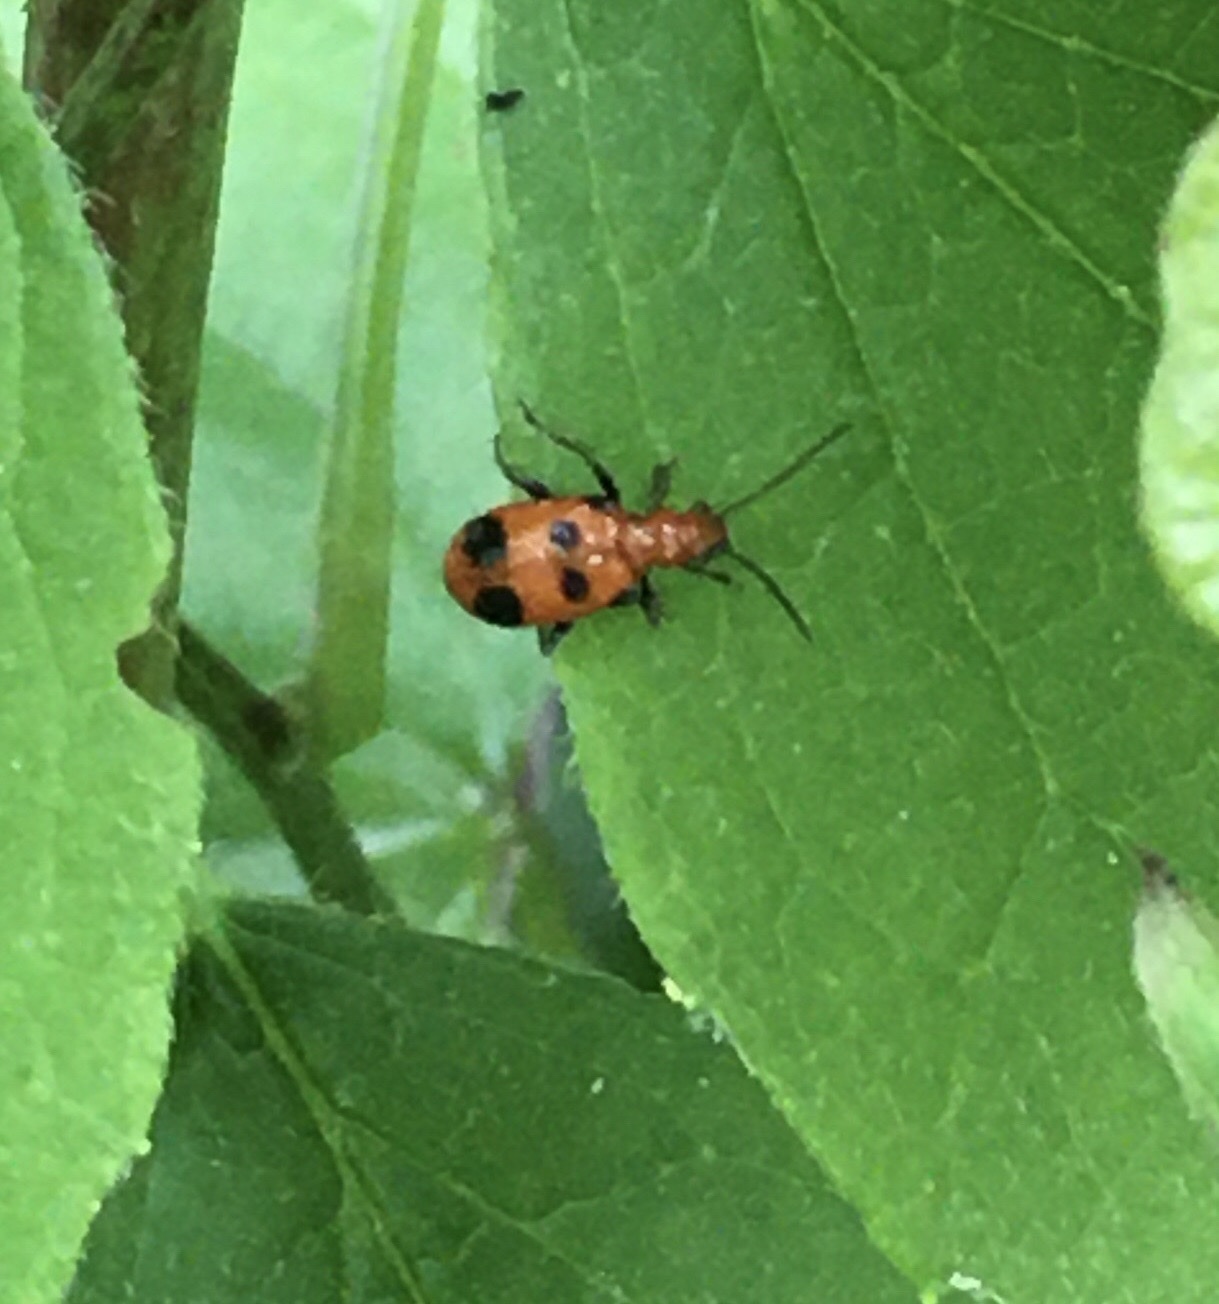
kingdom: Animalia
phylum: Arthropoda
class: Insecta
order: Coleoptera
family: Chrysomelidae
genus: Neolema
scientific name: Neolema sexpunctata
